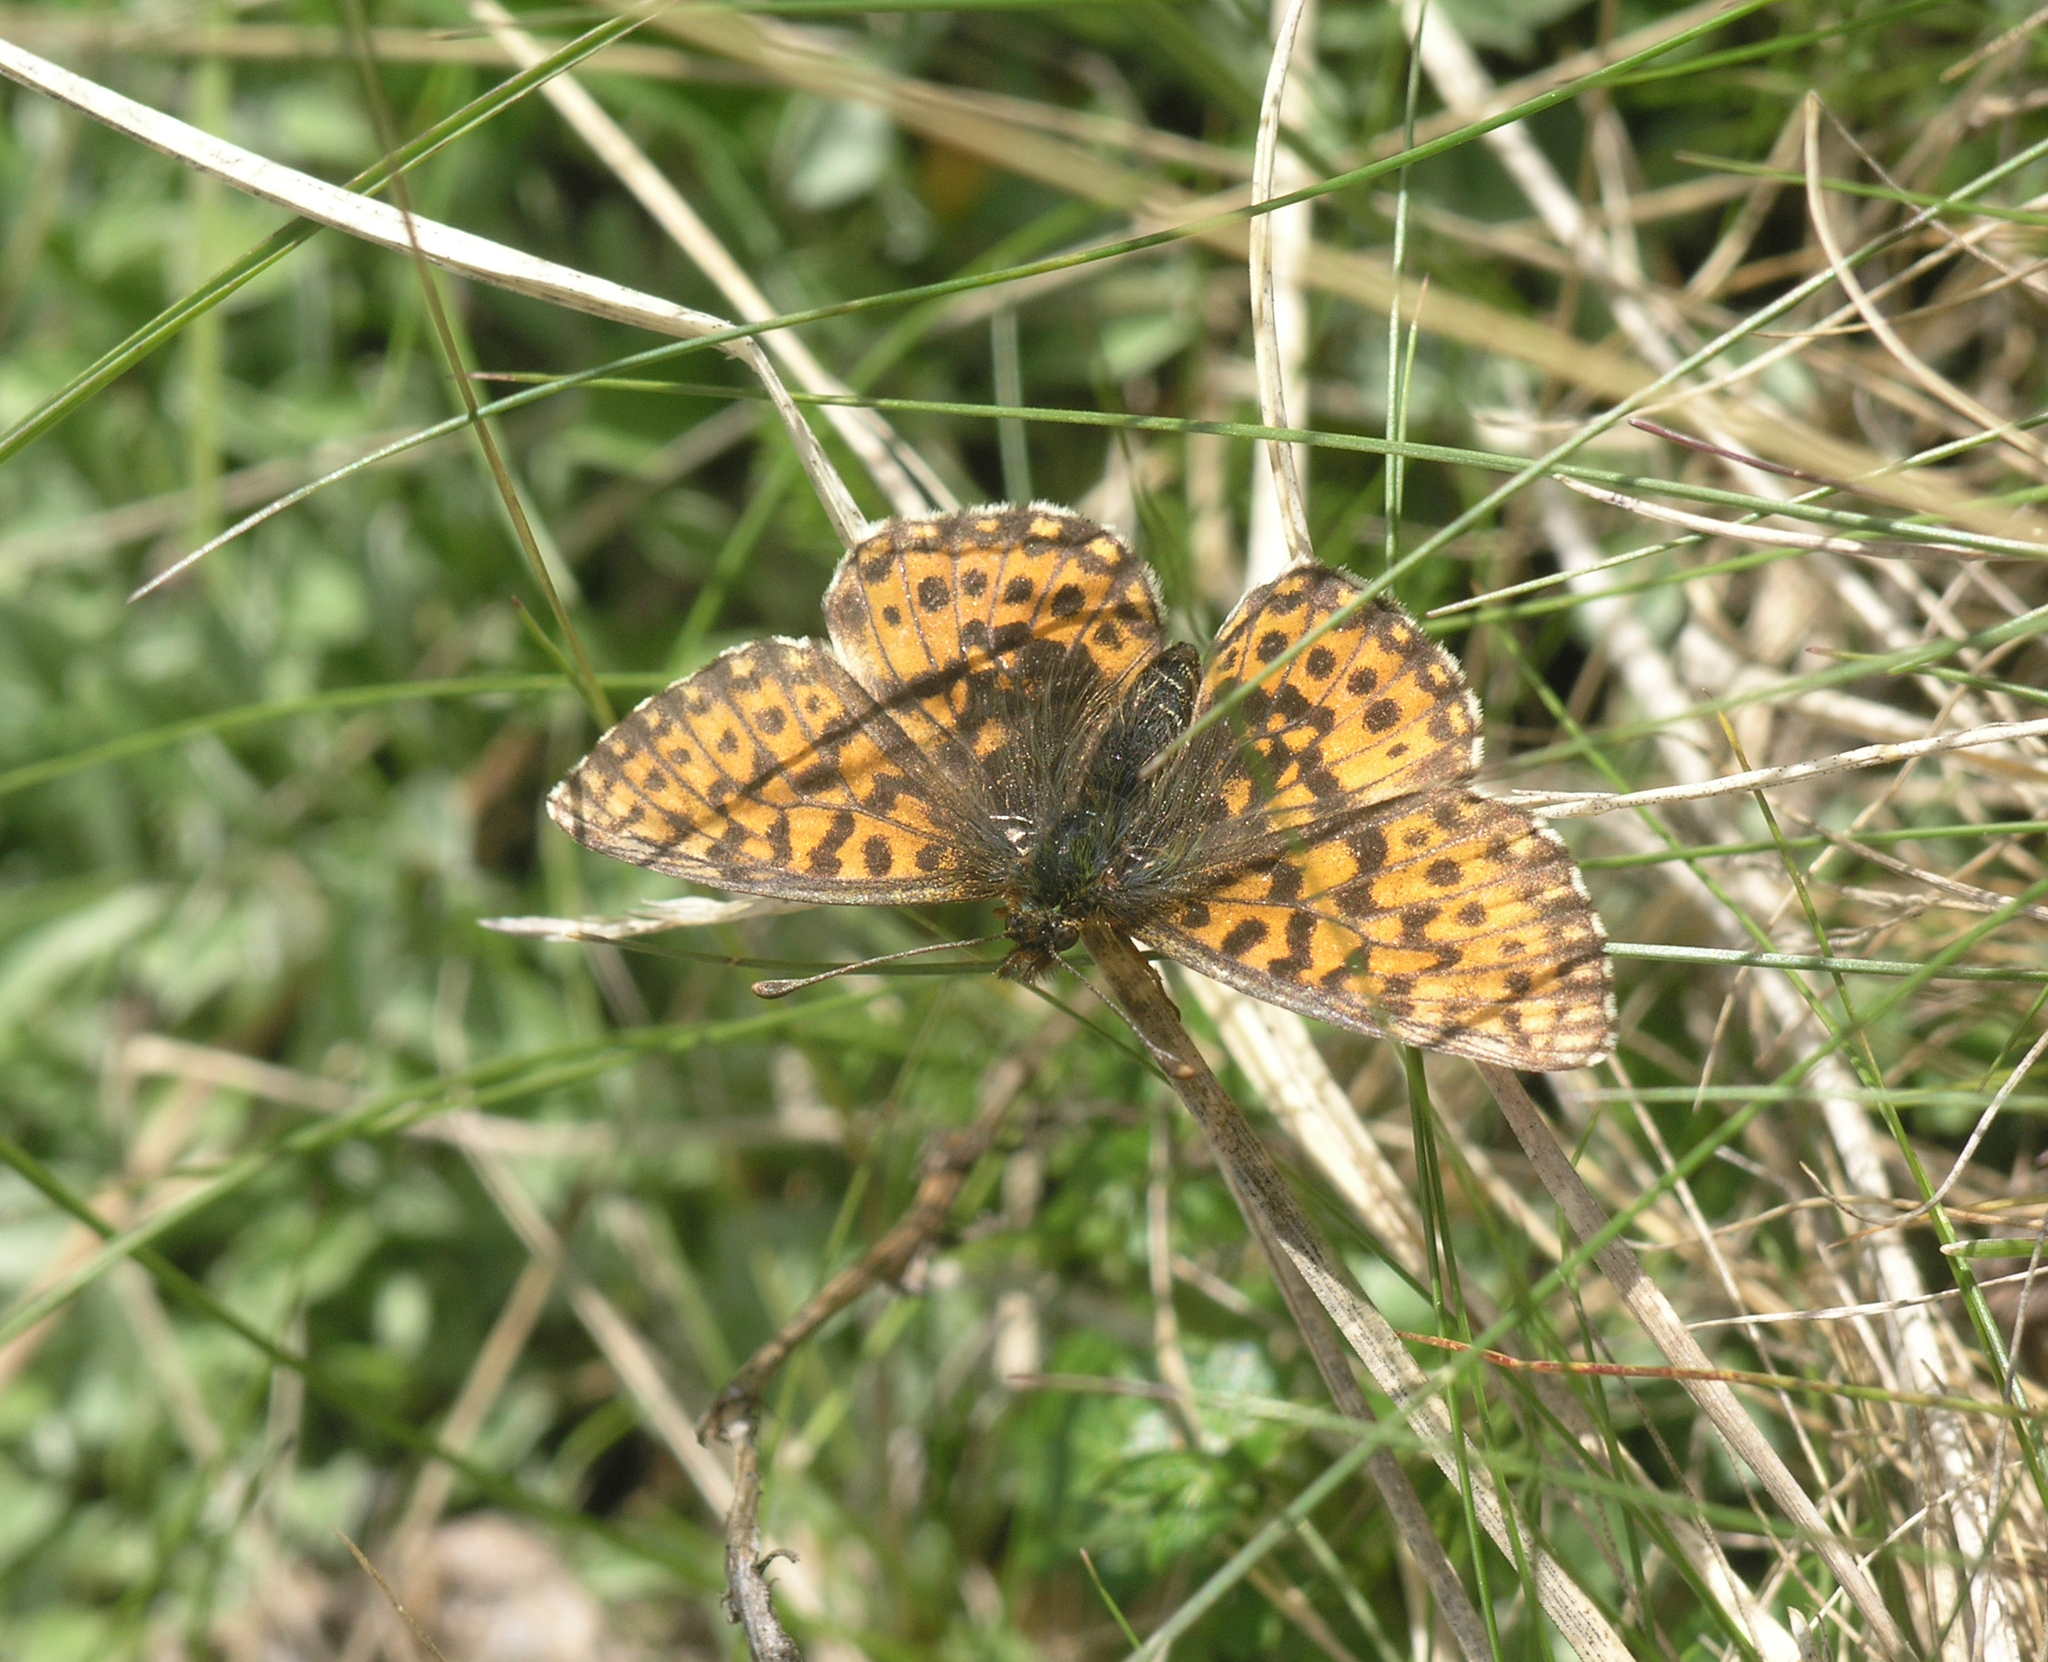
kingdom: Animalia
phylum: Arthropoda
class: Insecta
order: Lepidoptera
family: Nymphalidae
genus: Boloria
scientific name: Boloria dia
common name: Weaver's fritillary
